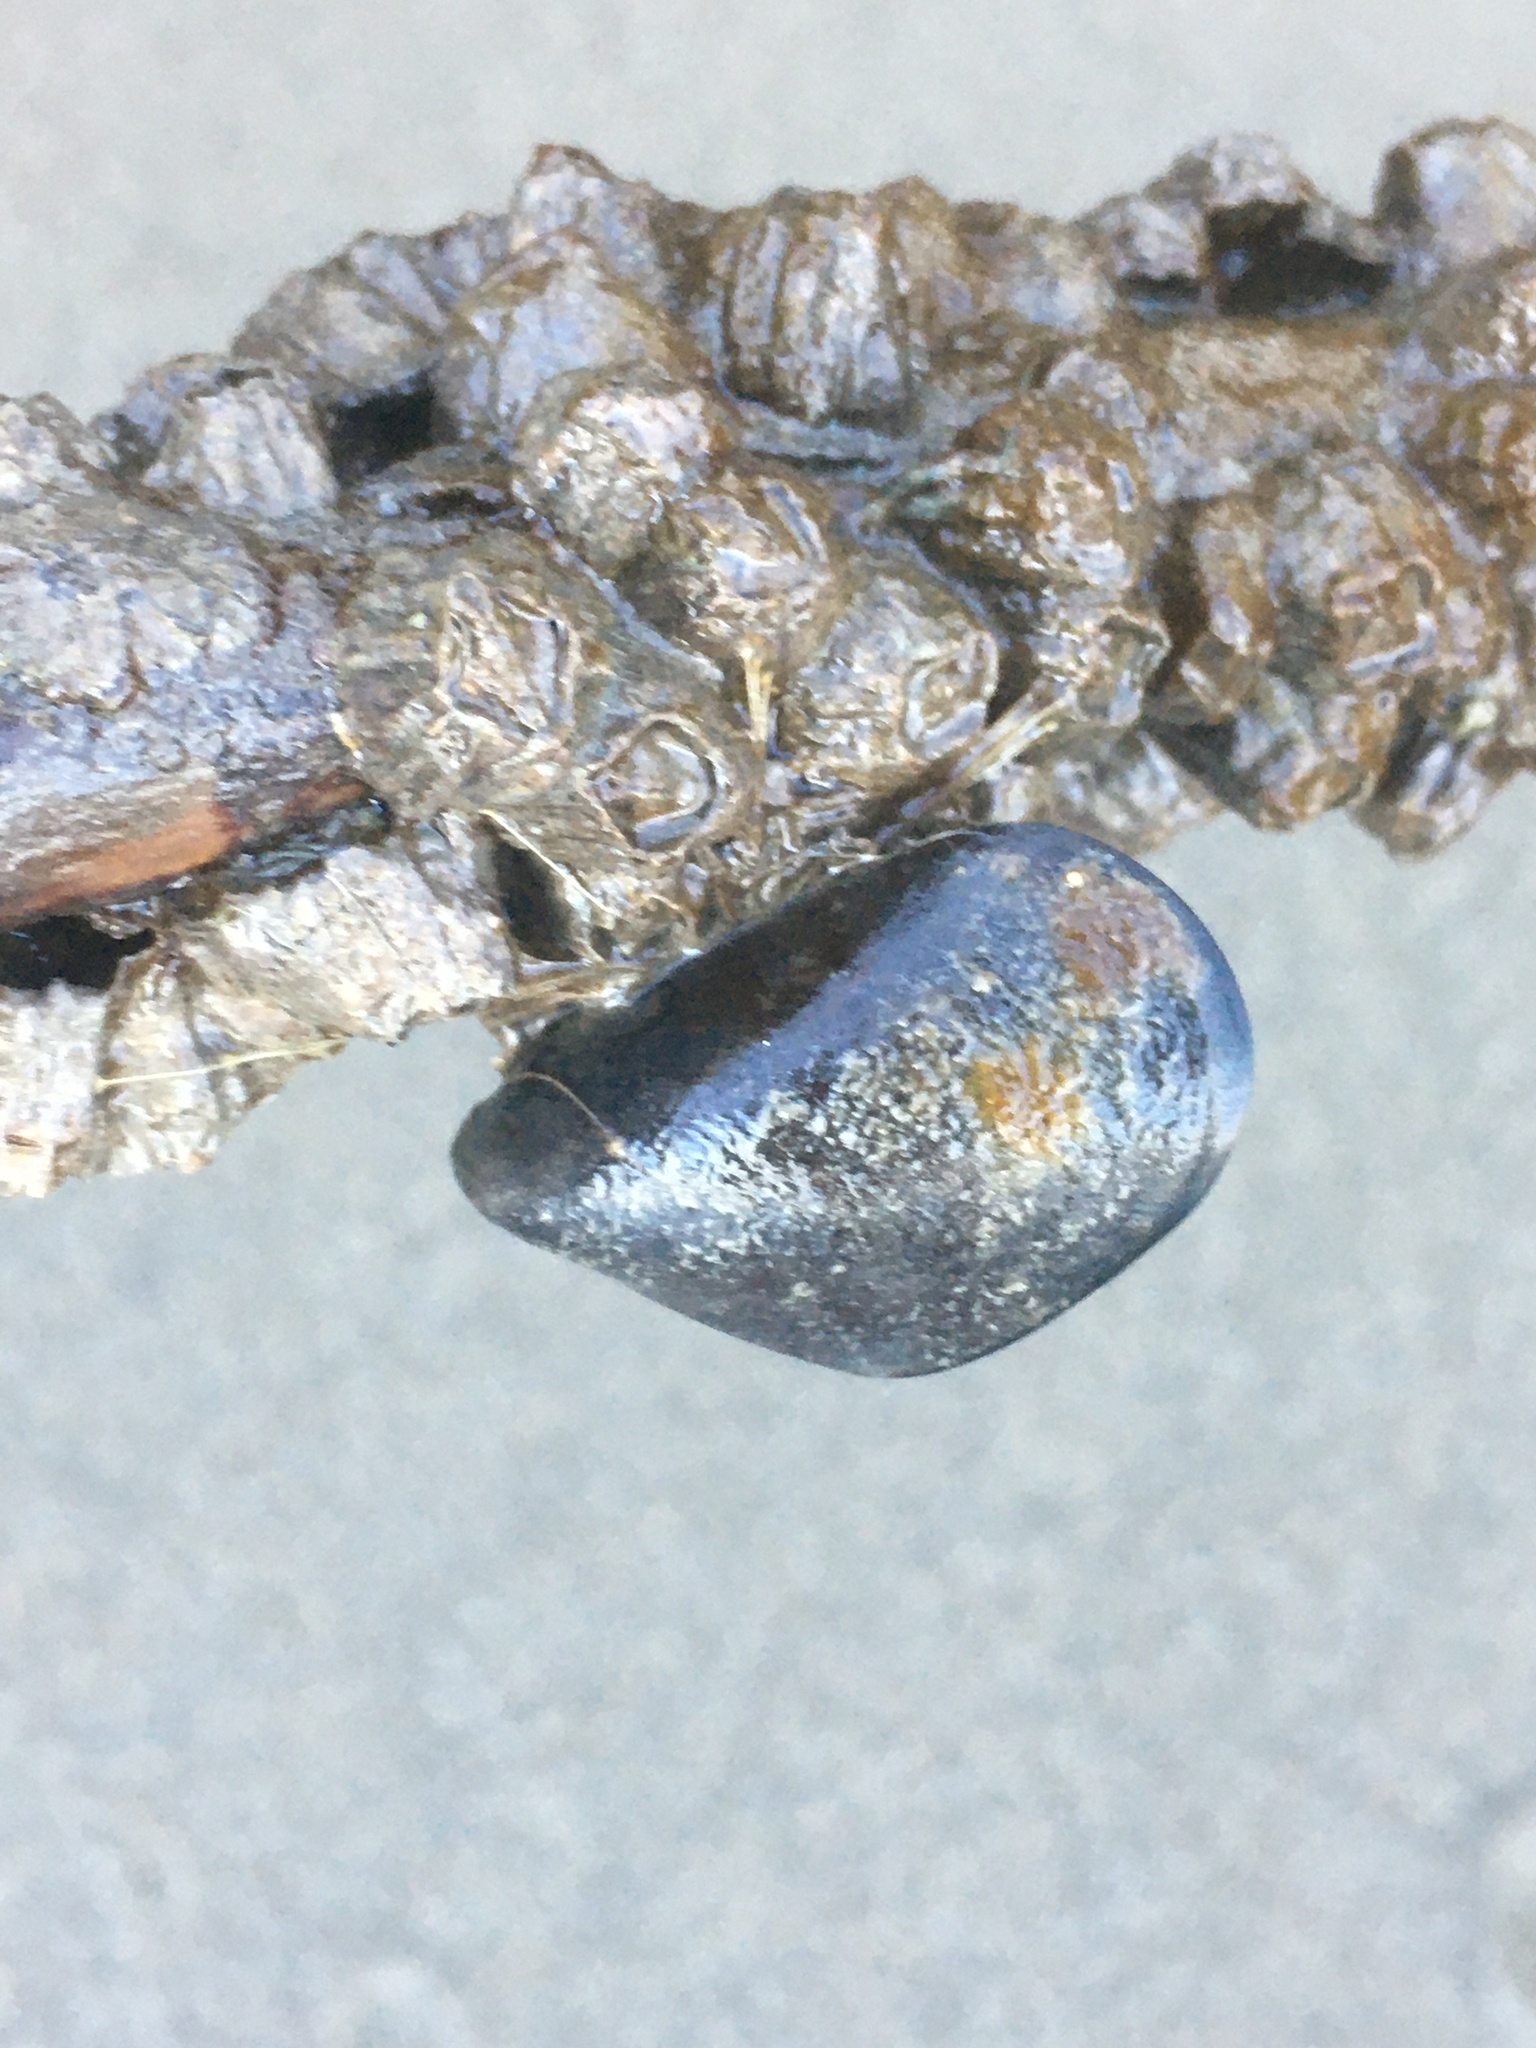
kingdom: Animalia
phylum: Mollusca
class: Bivalvia
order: Mytilida
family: Mytilidae
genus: Mytilus
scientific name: Mytilus
